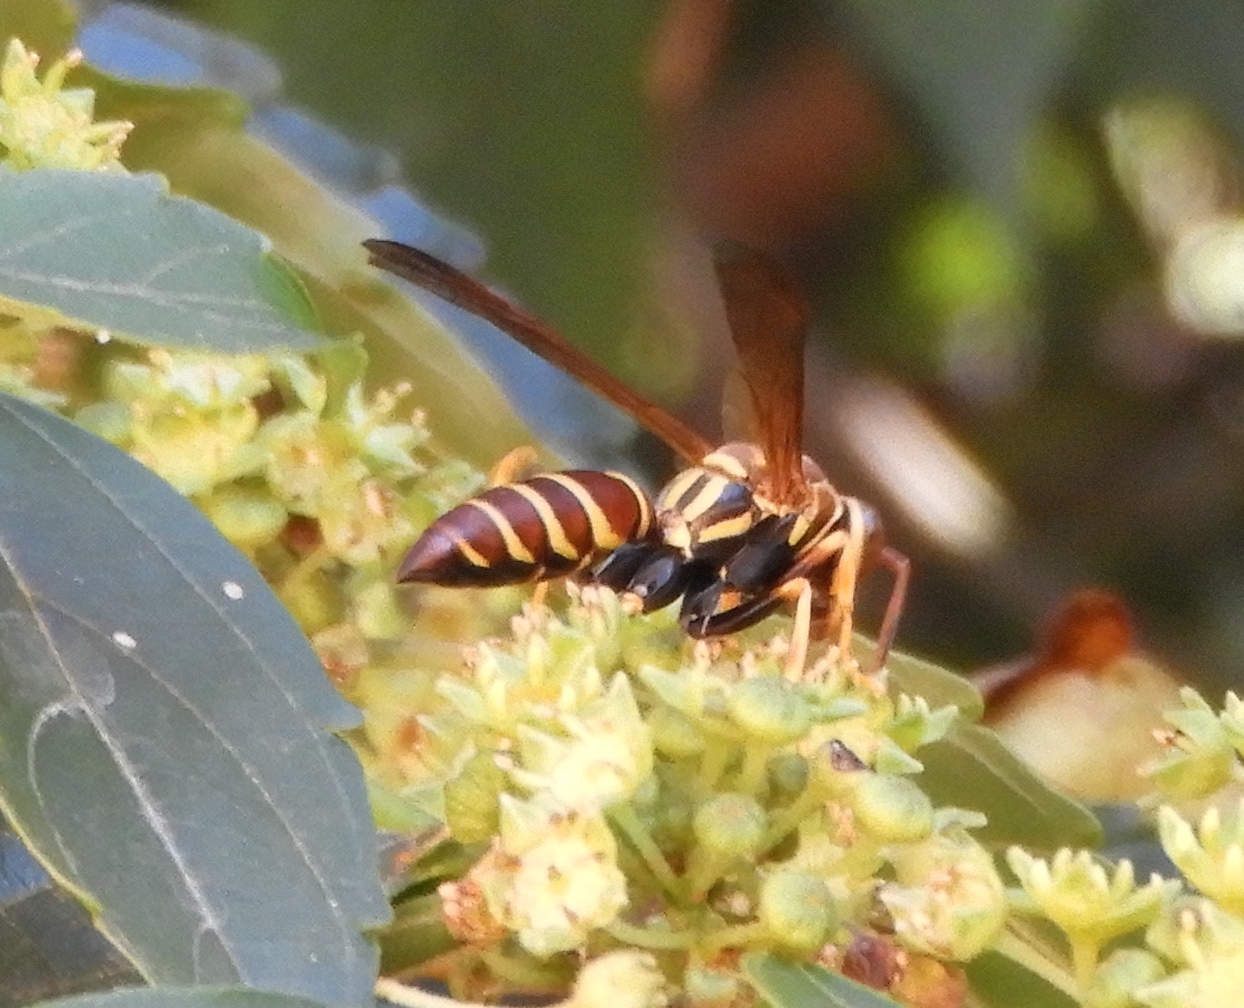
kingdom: Animalia
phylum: Arthropoda
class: Insecta
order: Hymenoptera
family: Eumenidae
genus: Polistes
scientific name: Polistes instabilis
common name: Unstable paper wasp
